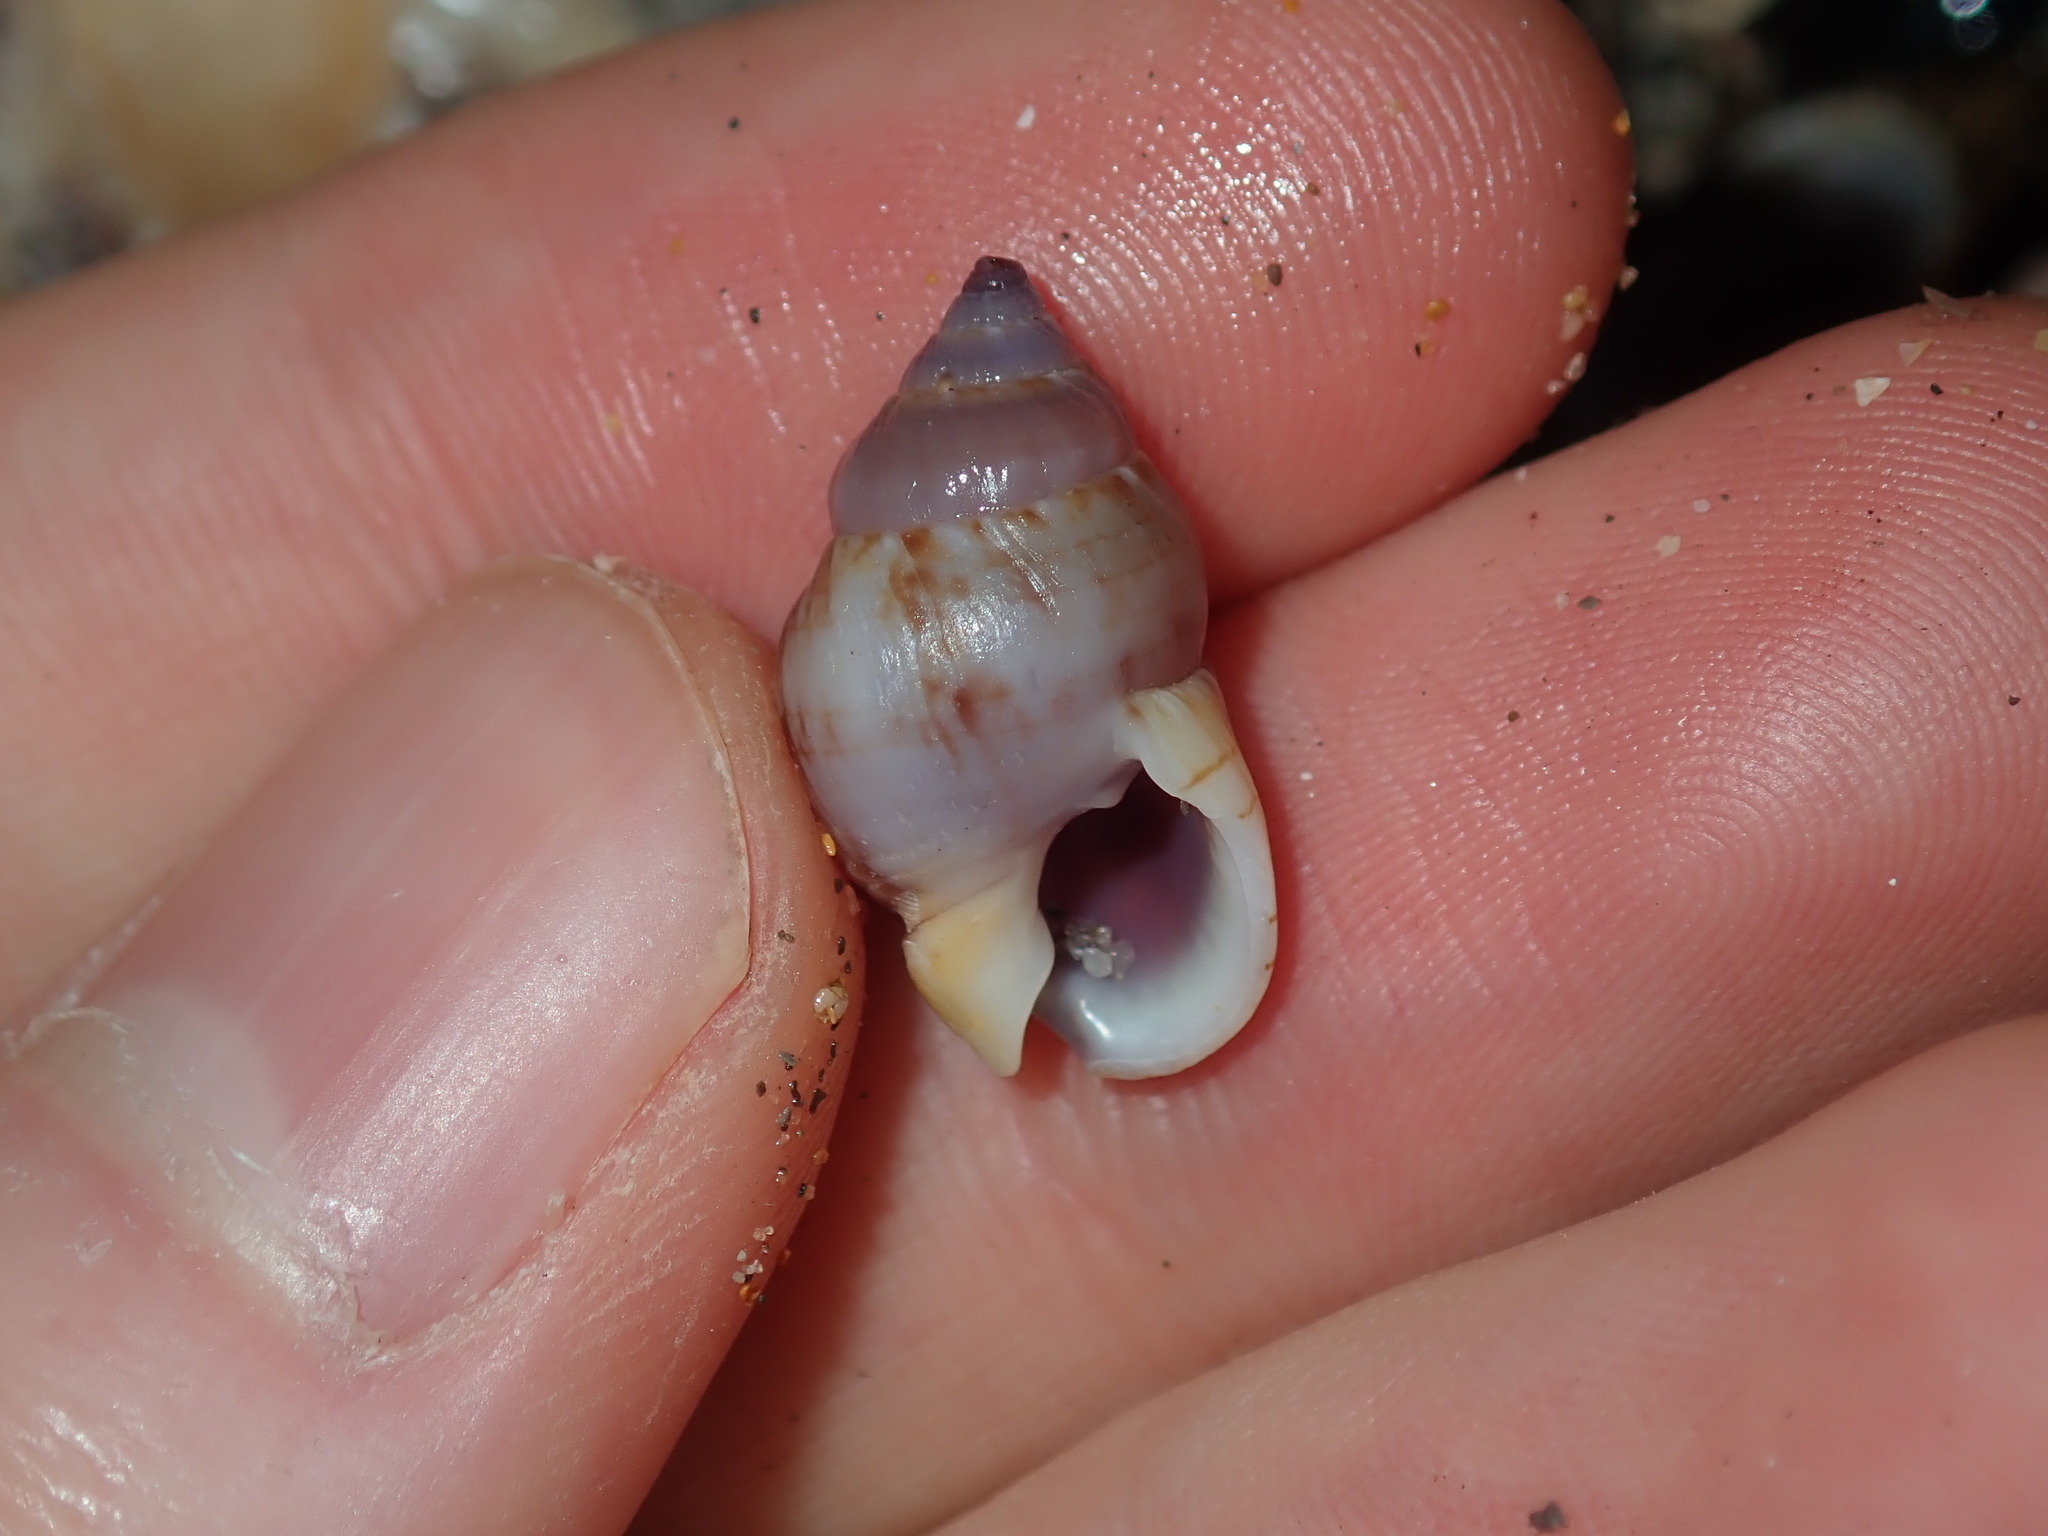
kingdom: Animalia
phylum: Mollusca
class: Gastropoda
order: Neogastropoda
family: Nassariidae
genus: Nassarius
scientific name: Nassarius gaudiosus
